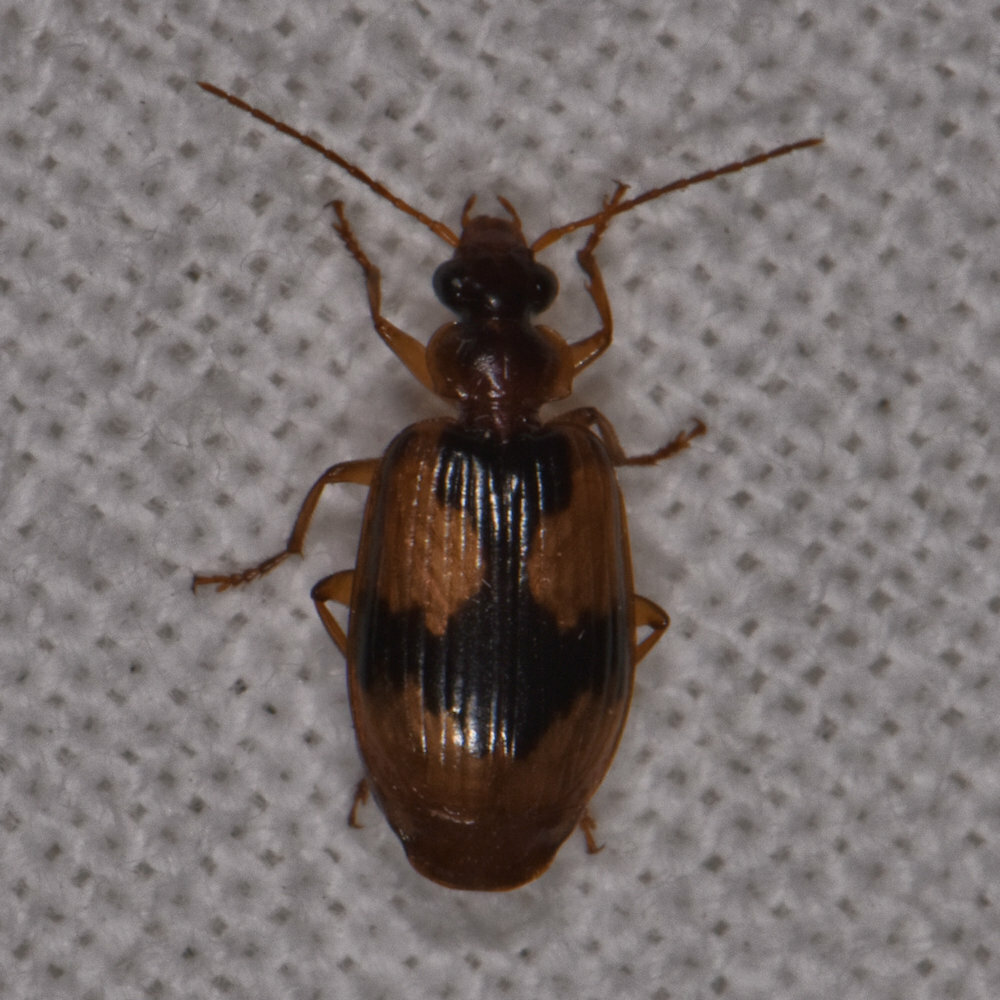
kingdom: Animalia
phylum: Arthropoda
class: Insecta
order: Coleoptera
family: Carabidae
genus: Lebia
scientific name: Lebia fuscata
